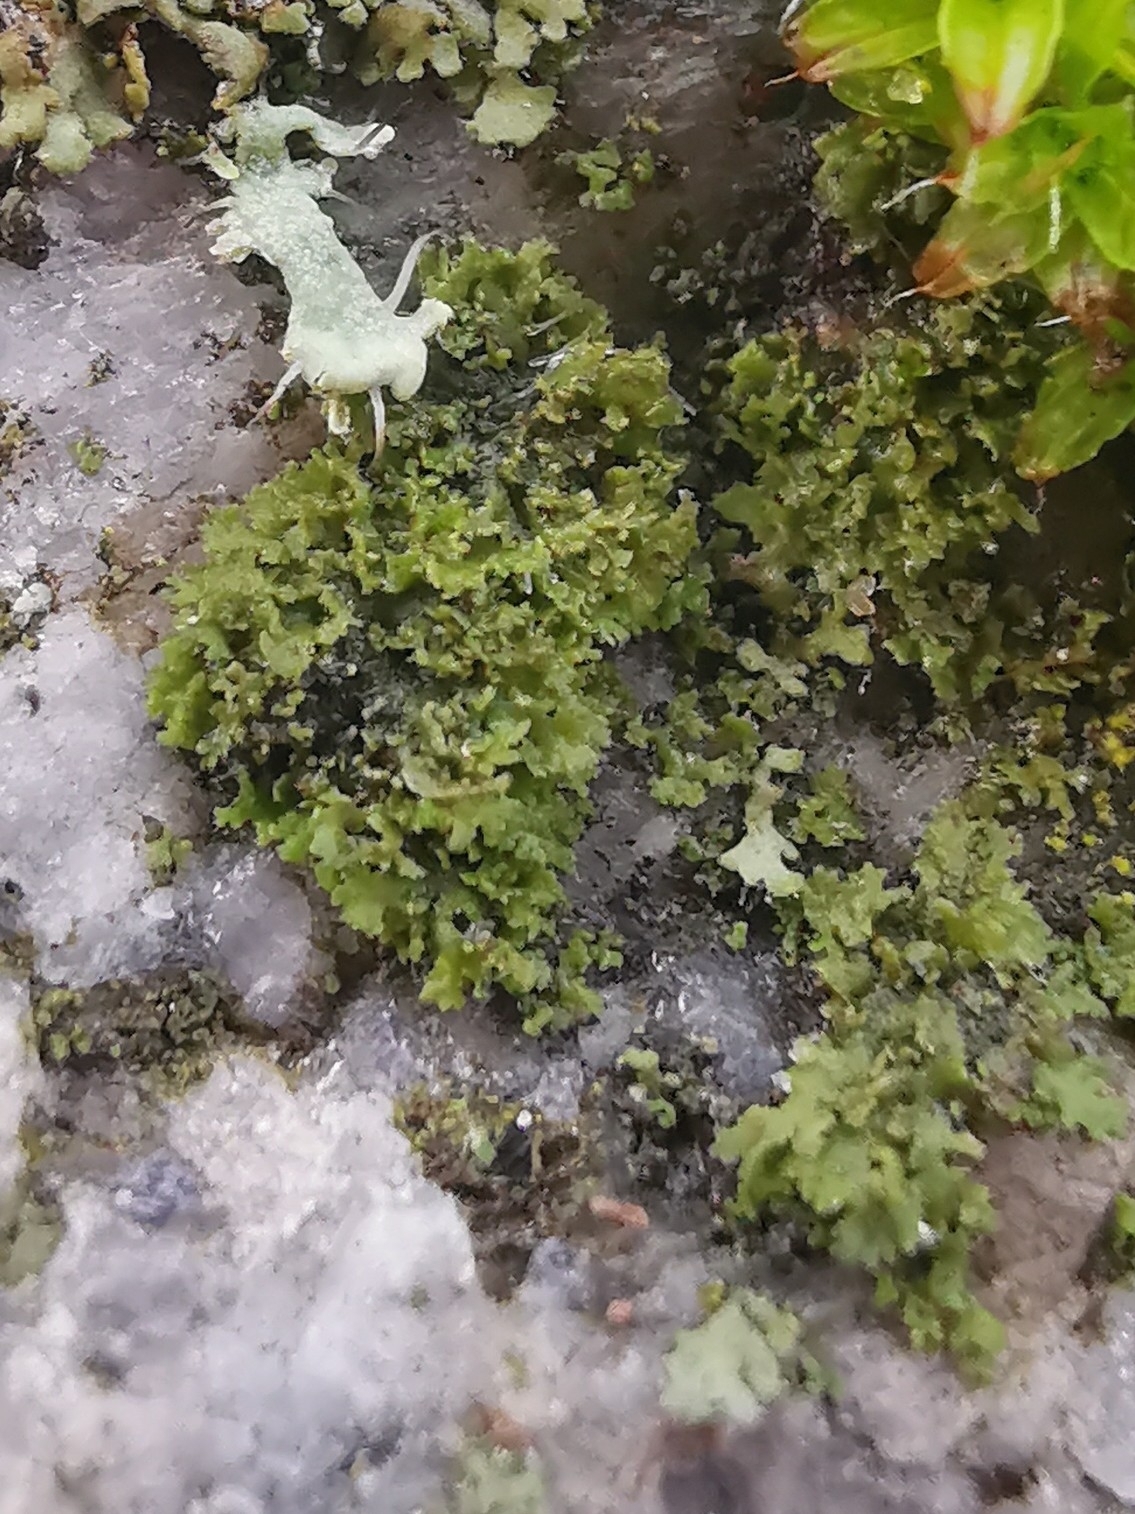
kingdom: Fungi
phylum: Ascomycota
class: Lecanoromycetes
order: Caliciales
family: Physciaceae
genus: Physciella
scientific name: Physciella nigricans
